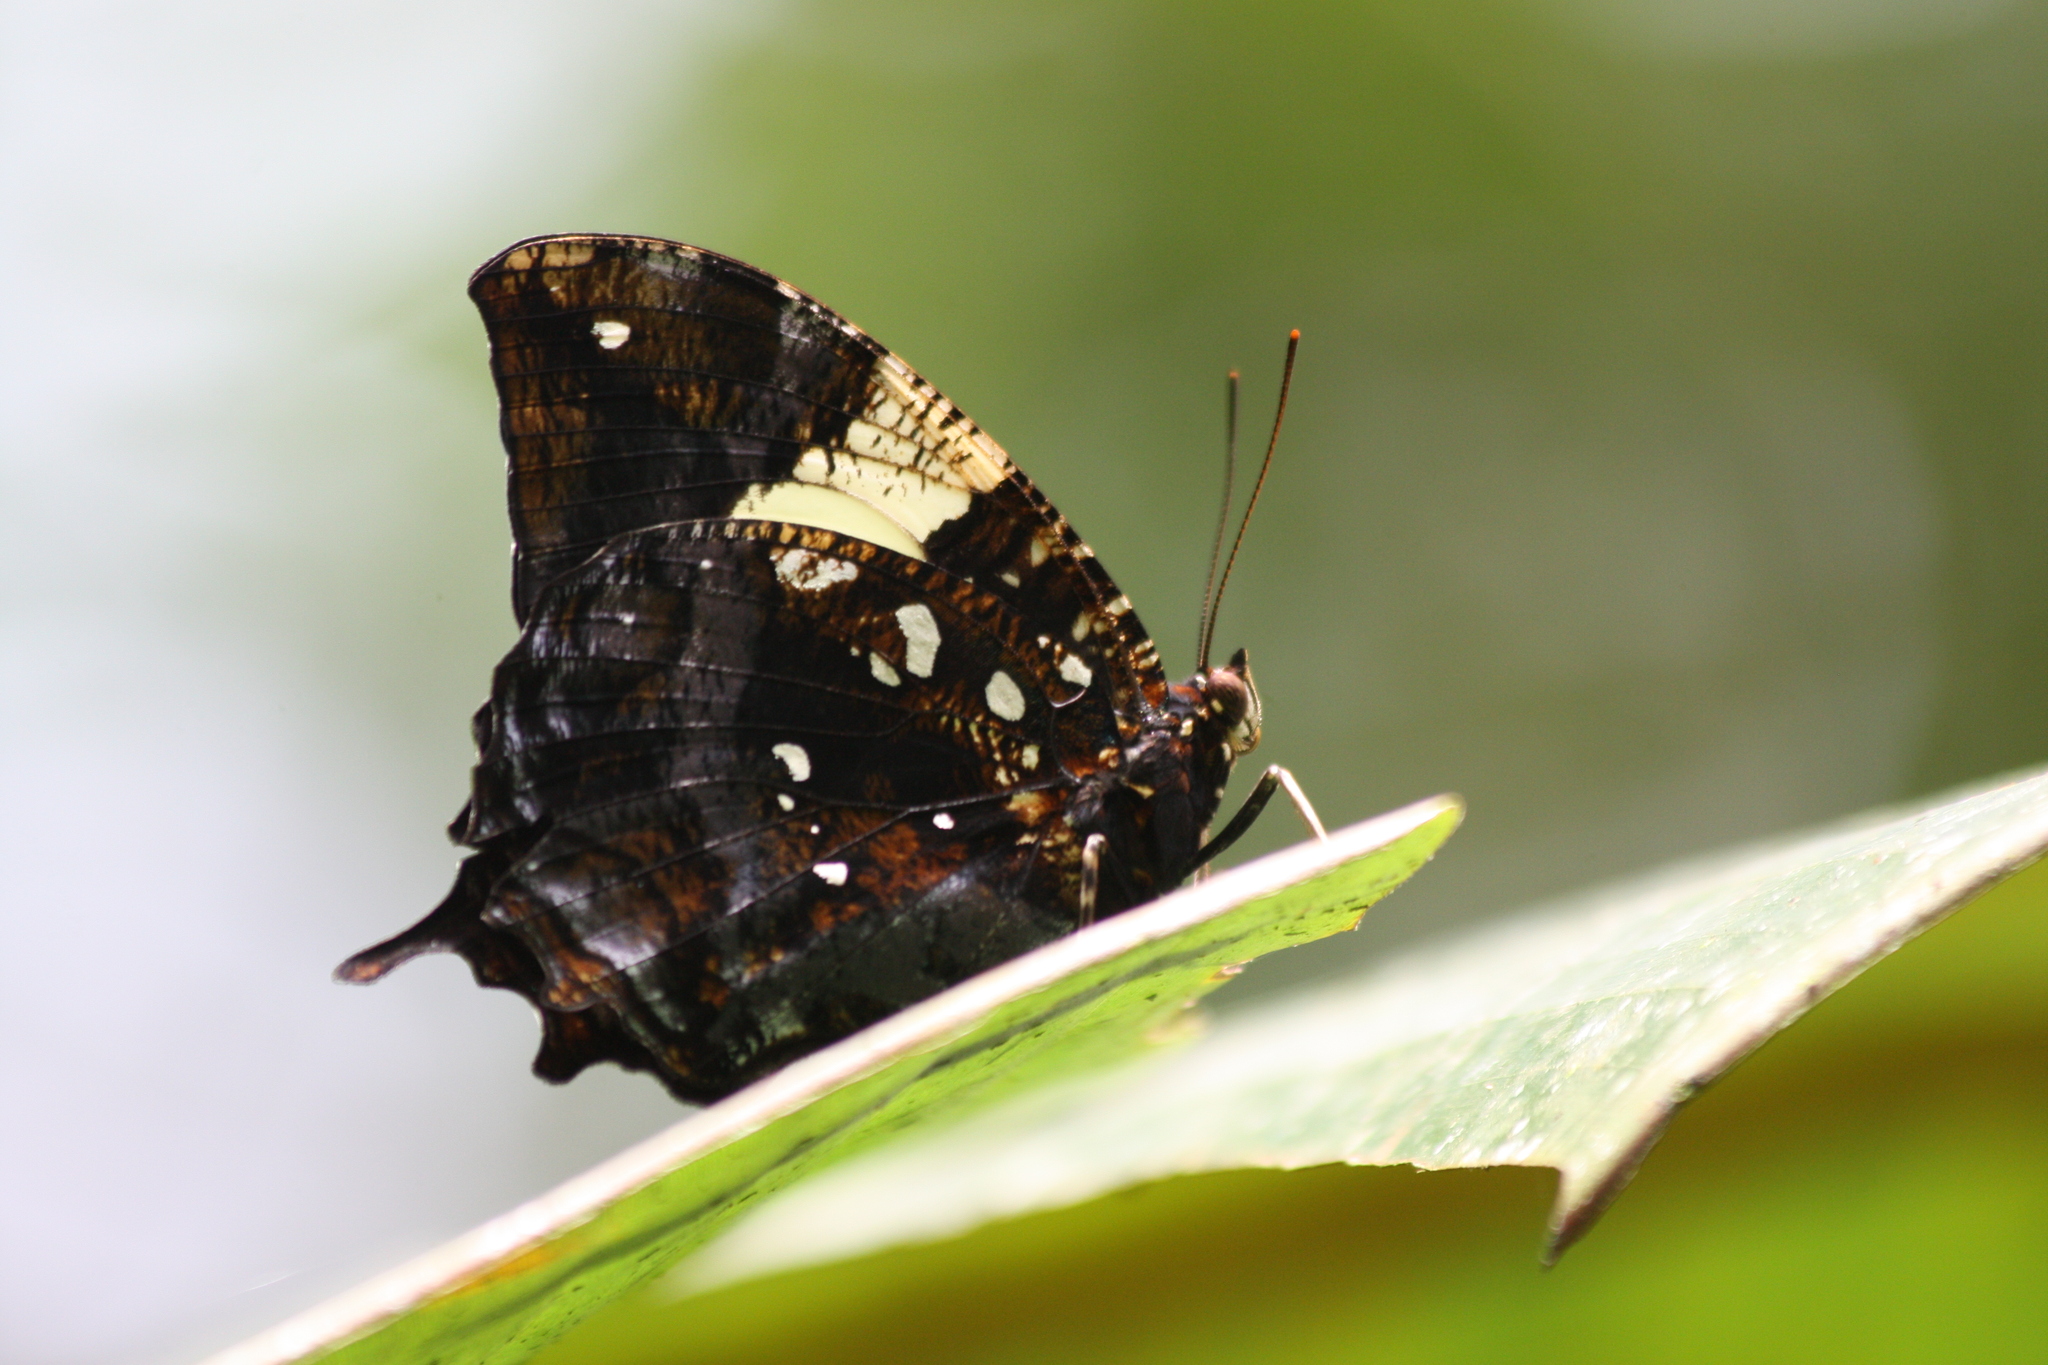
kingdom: Animalia
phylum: Arthropoda
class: Insecta
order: Lepidoptera
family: Nymphalidae
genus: Hypna
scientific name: Hypna clytemnestra
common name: Silver-studded leafwing
